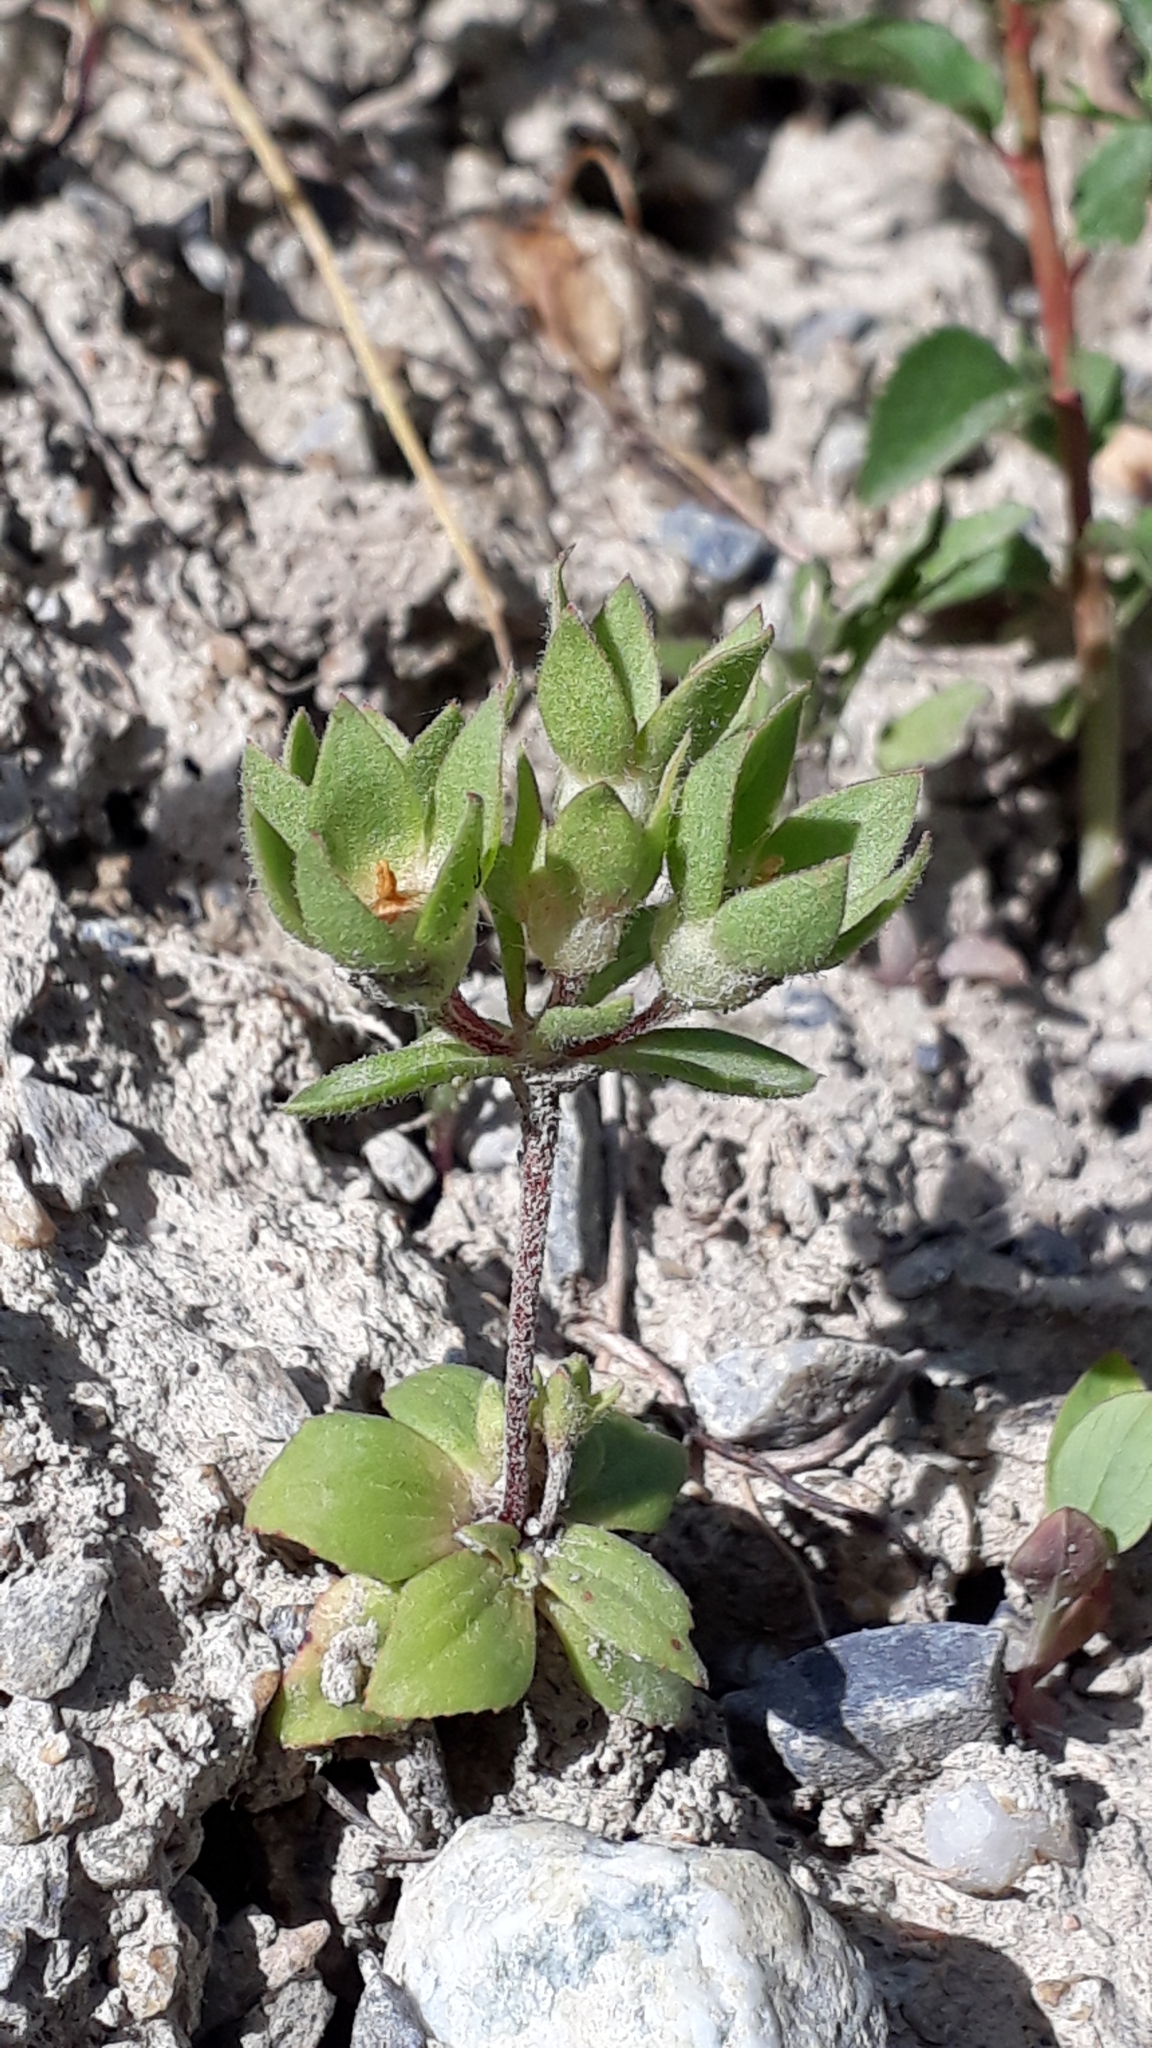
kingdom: Plantae
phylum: Tracheophyta
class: Magnoliopsida
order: Ericales
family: Primulaceae
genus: Androsace
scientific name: Androsace maxima
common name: Annual androsace
